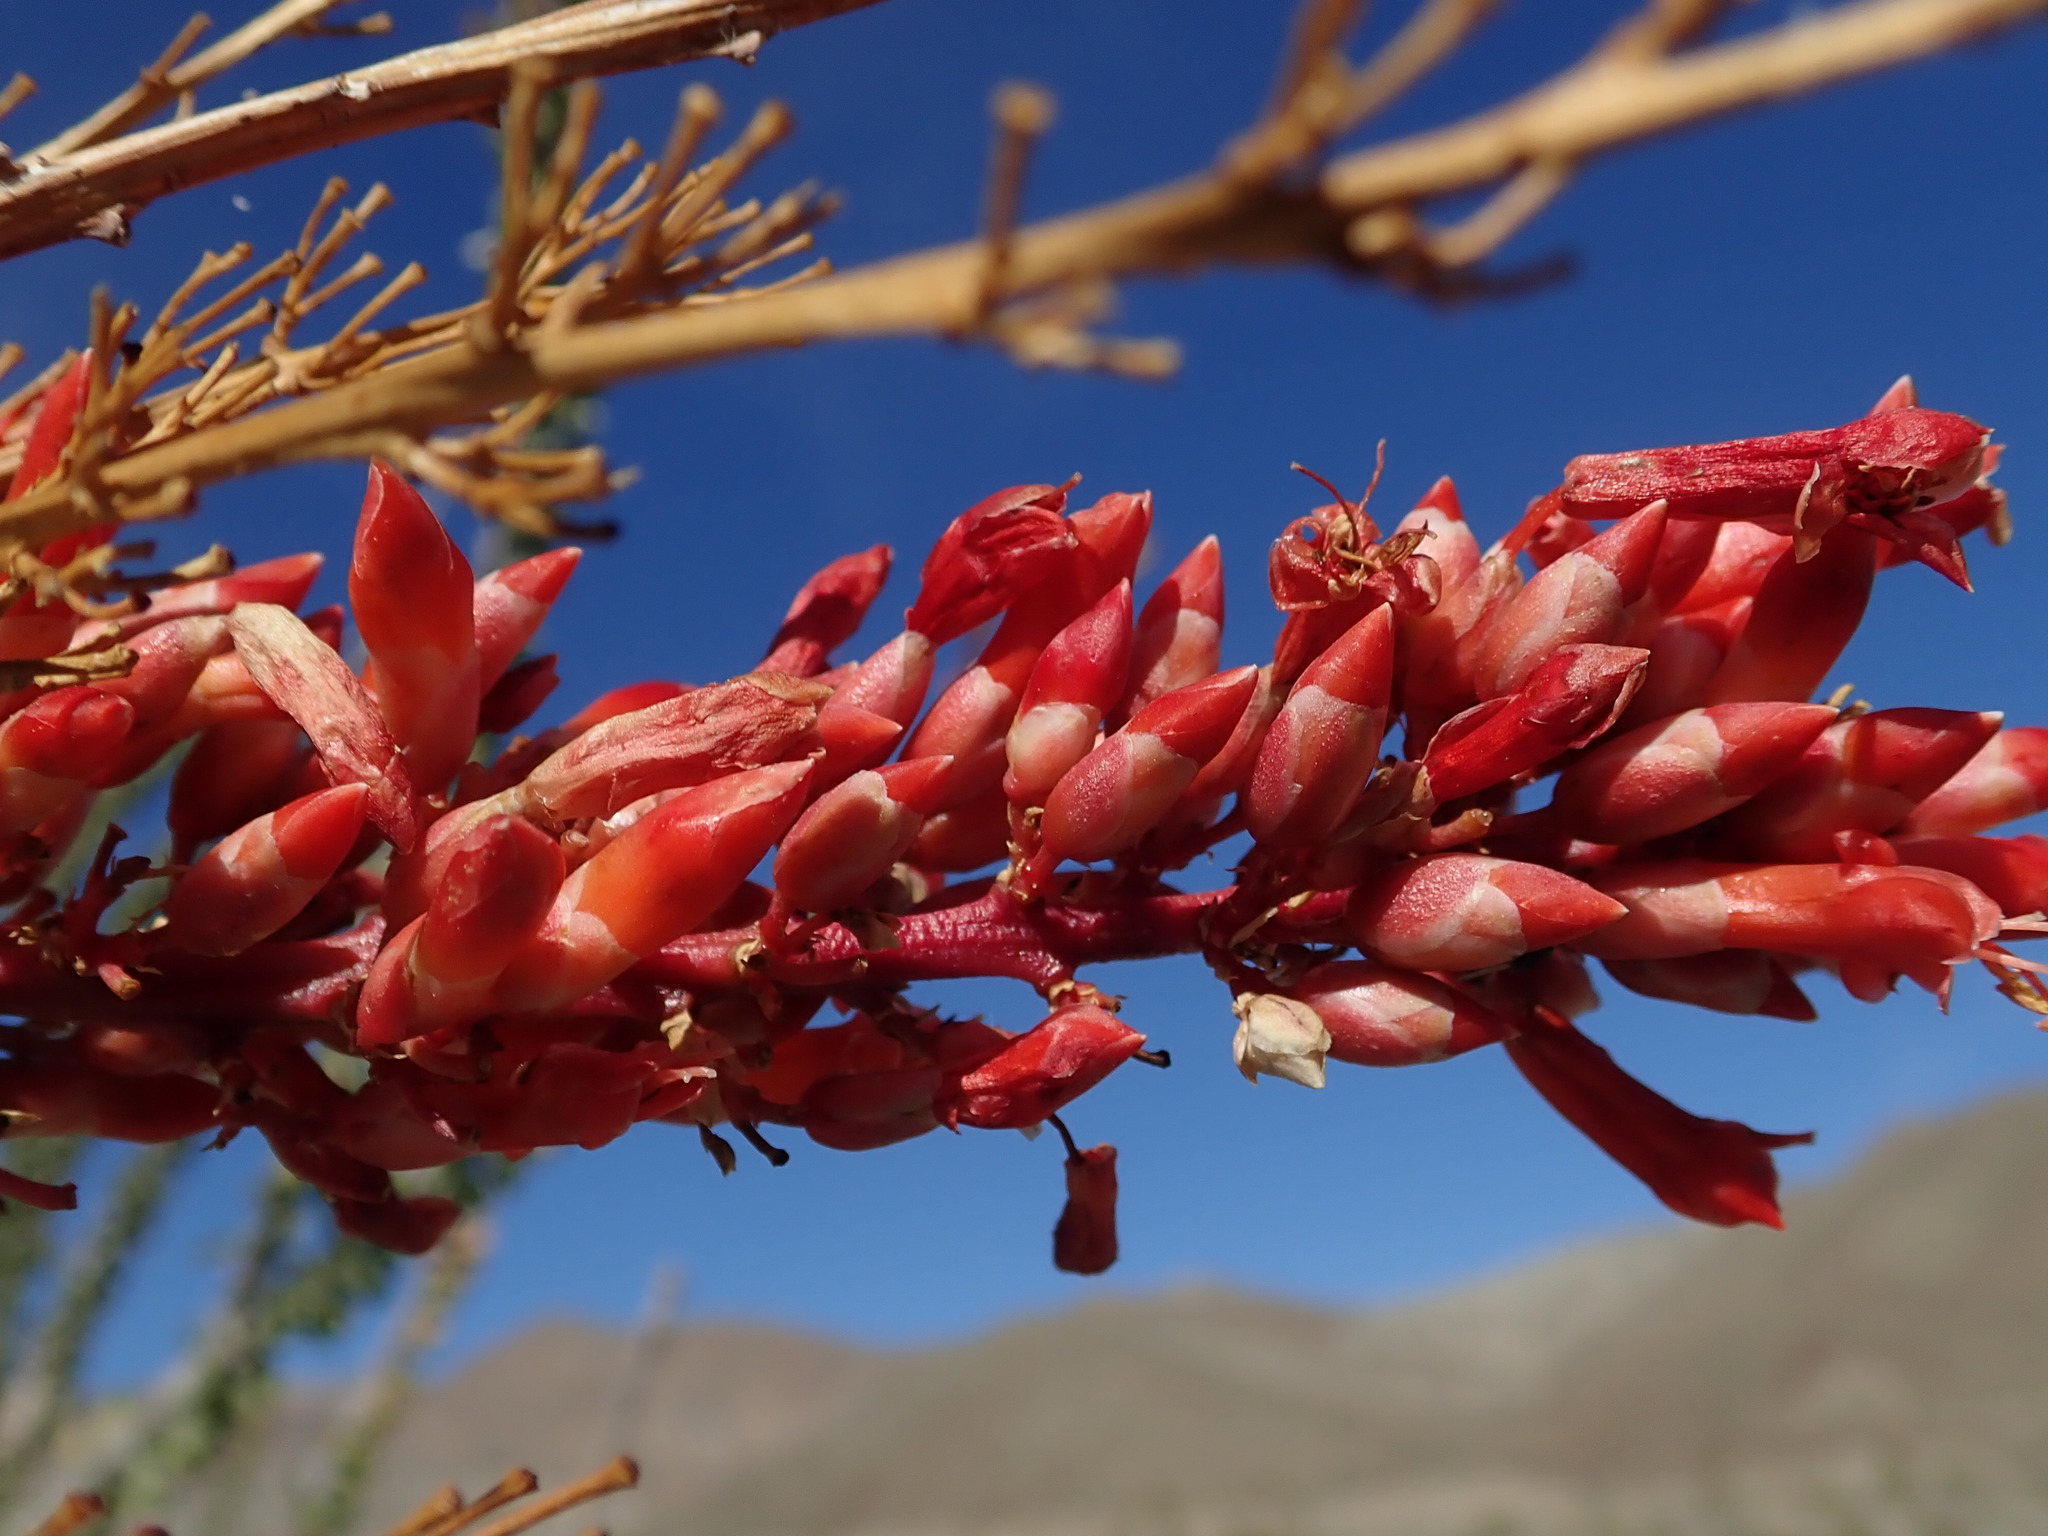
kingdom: Plantae
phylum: Tracheophyta
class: Magnoliopsida
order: Ericales
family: Fouquieriaceae
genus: Fouquieria
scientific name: Fouquieria splendens
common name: Vine-cactus
